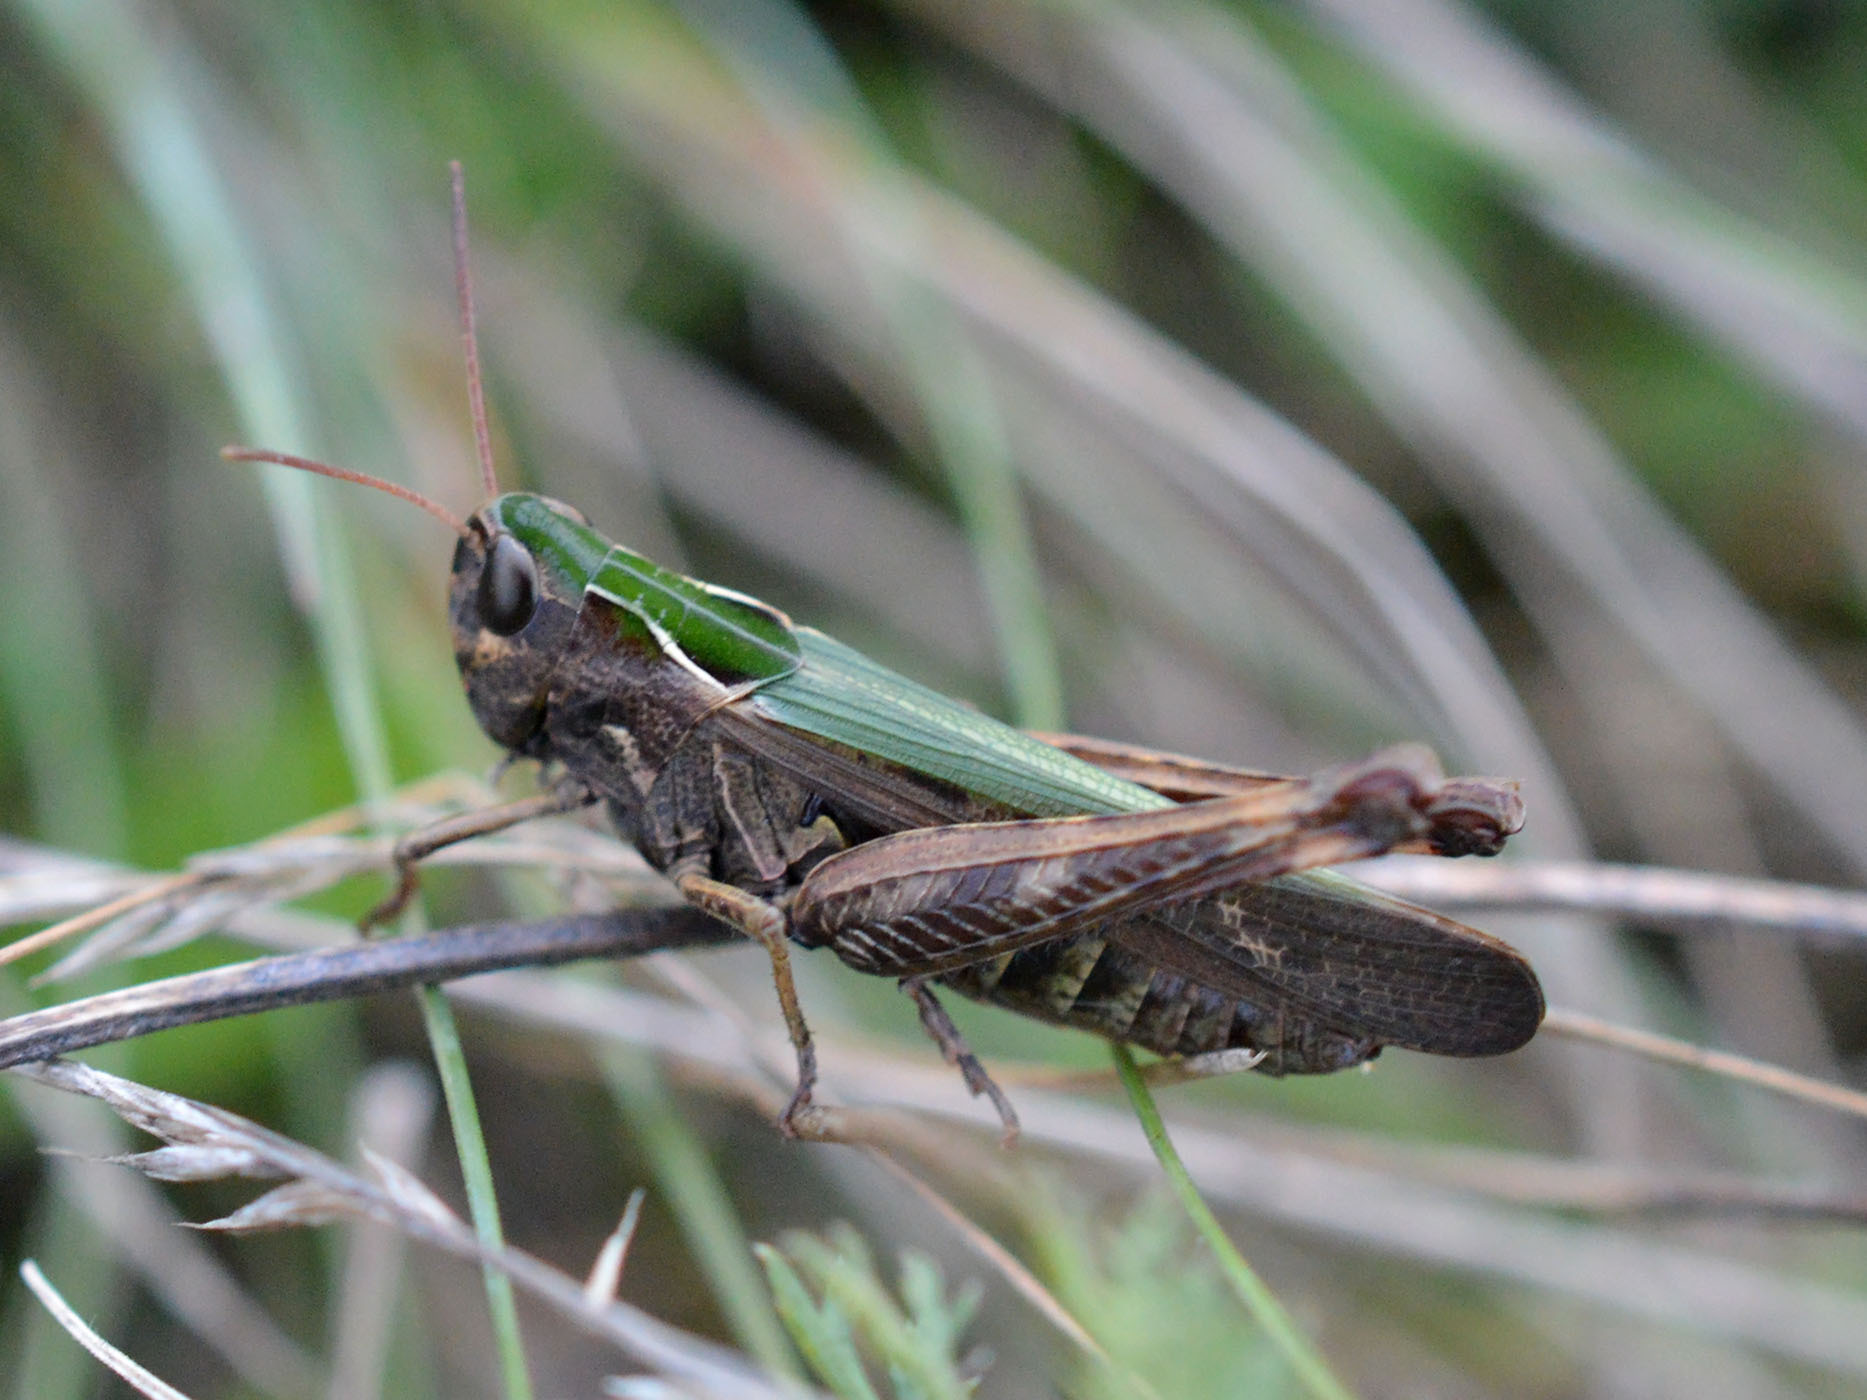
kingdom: Animalia
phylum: Arthropoda
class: Insecta
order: Orthoptera
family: Acrididae
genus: Omocestus
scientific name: Omocestus rufipes
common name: Woodland grasshopper
